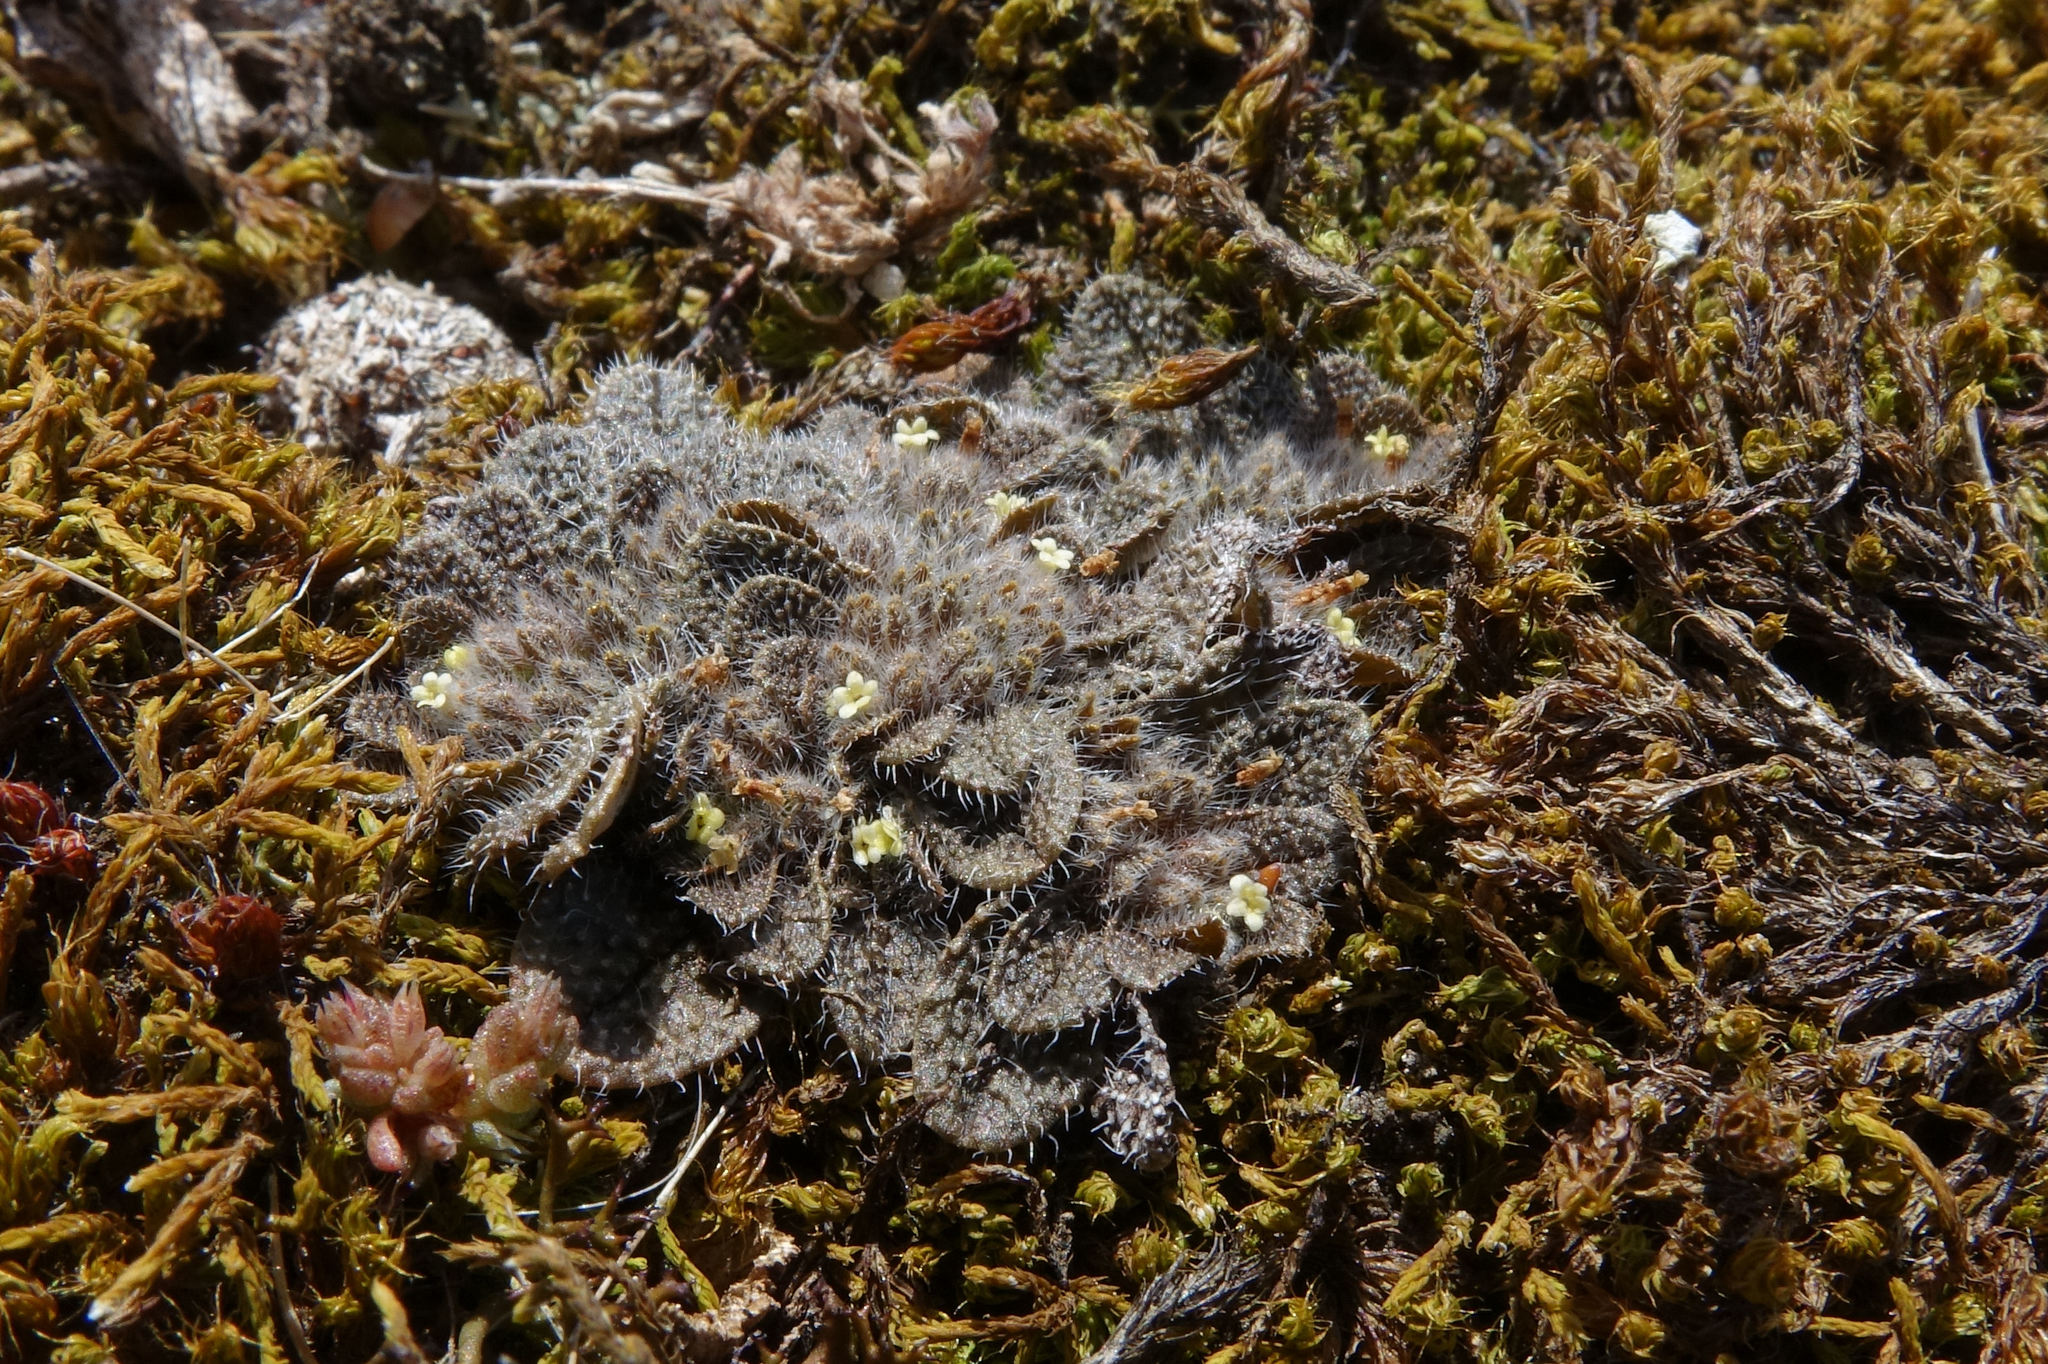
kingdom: Plantae
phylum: Tracheophyta
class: Magnoliopsida
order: Boraginales
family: Boraginaceae
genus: Myosotis
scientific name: Myosotis brevis
